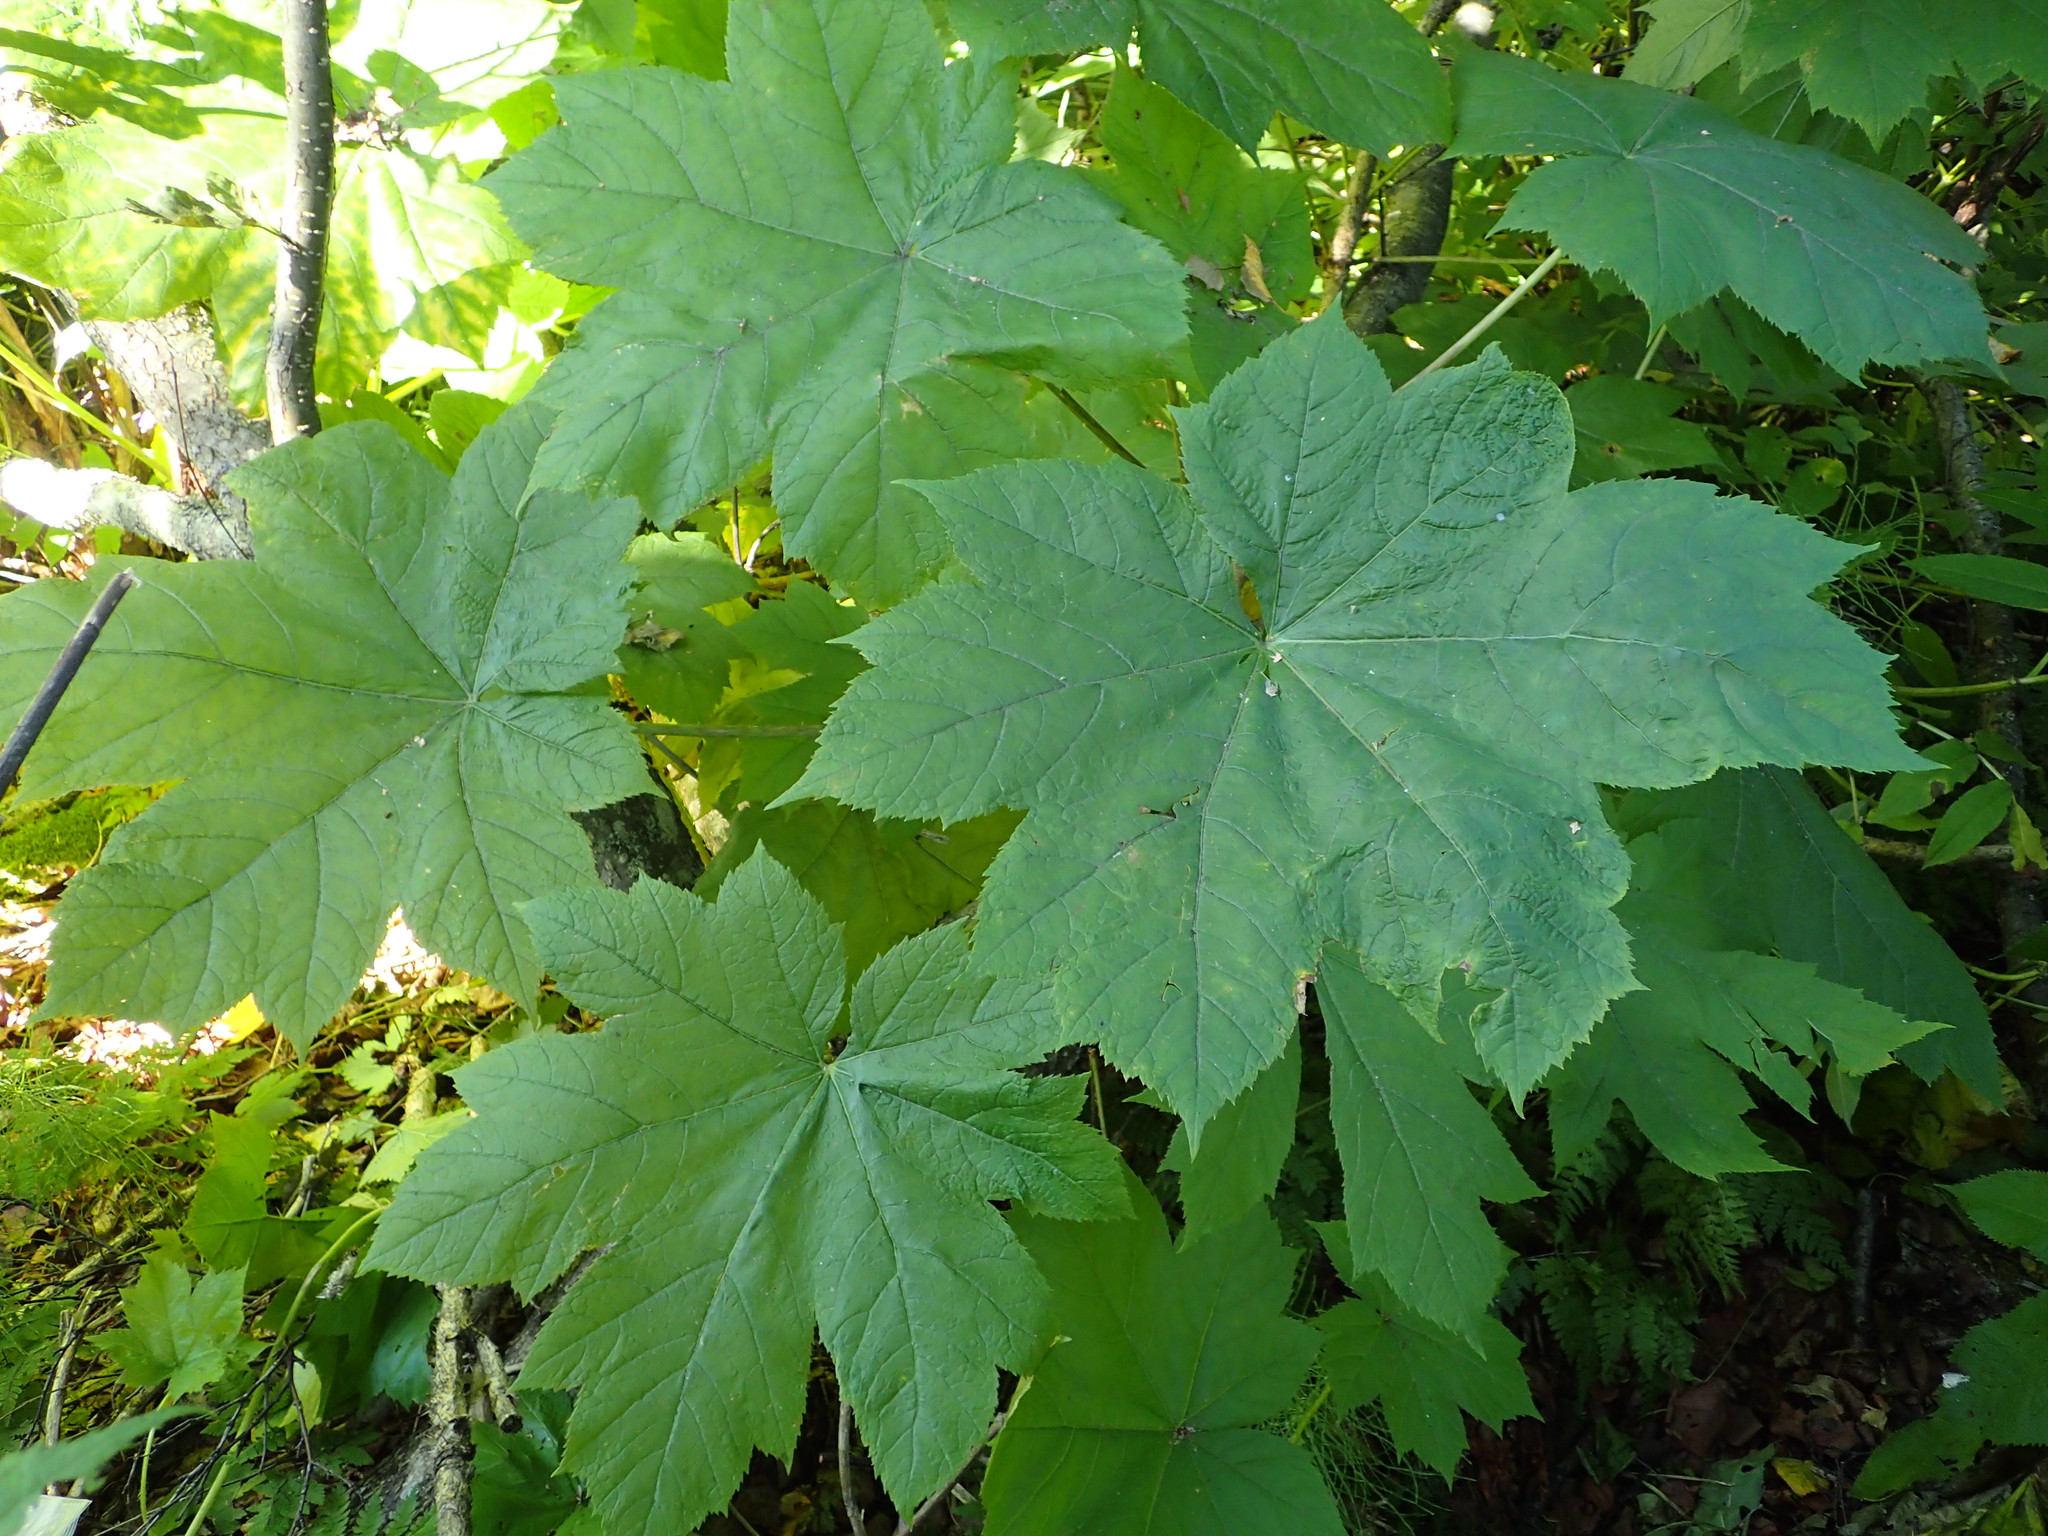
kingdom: Plantae
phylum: Tracheophyta
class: Magnoliopsida
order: Apiales
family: Araliaceae
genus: Oplopanax
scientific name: Oplopanax horridus
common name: Devil's walking-stick
